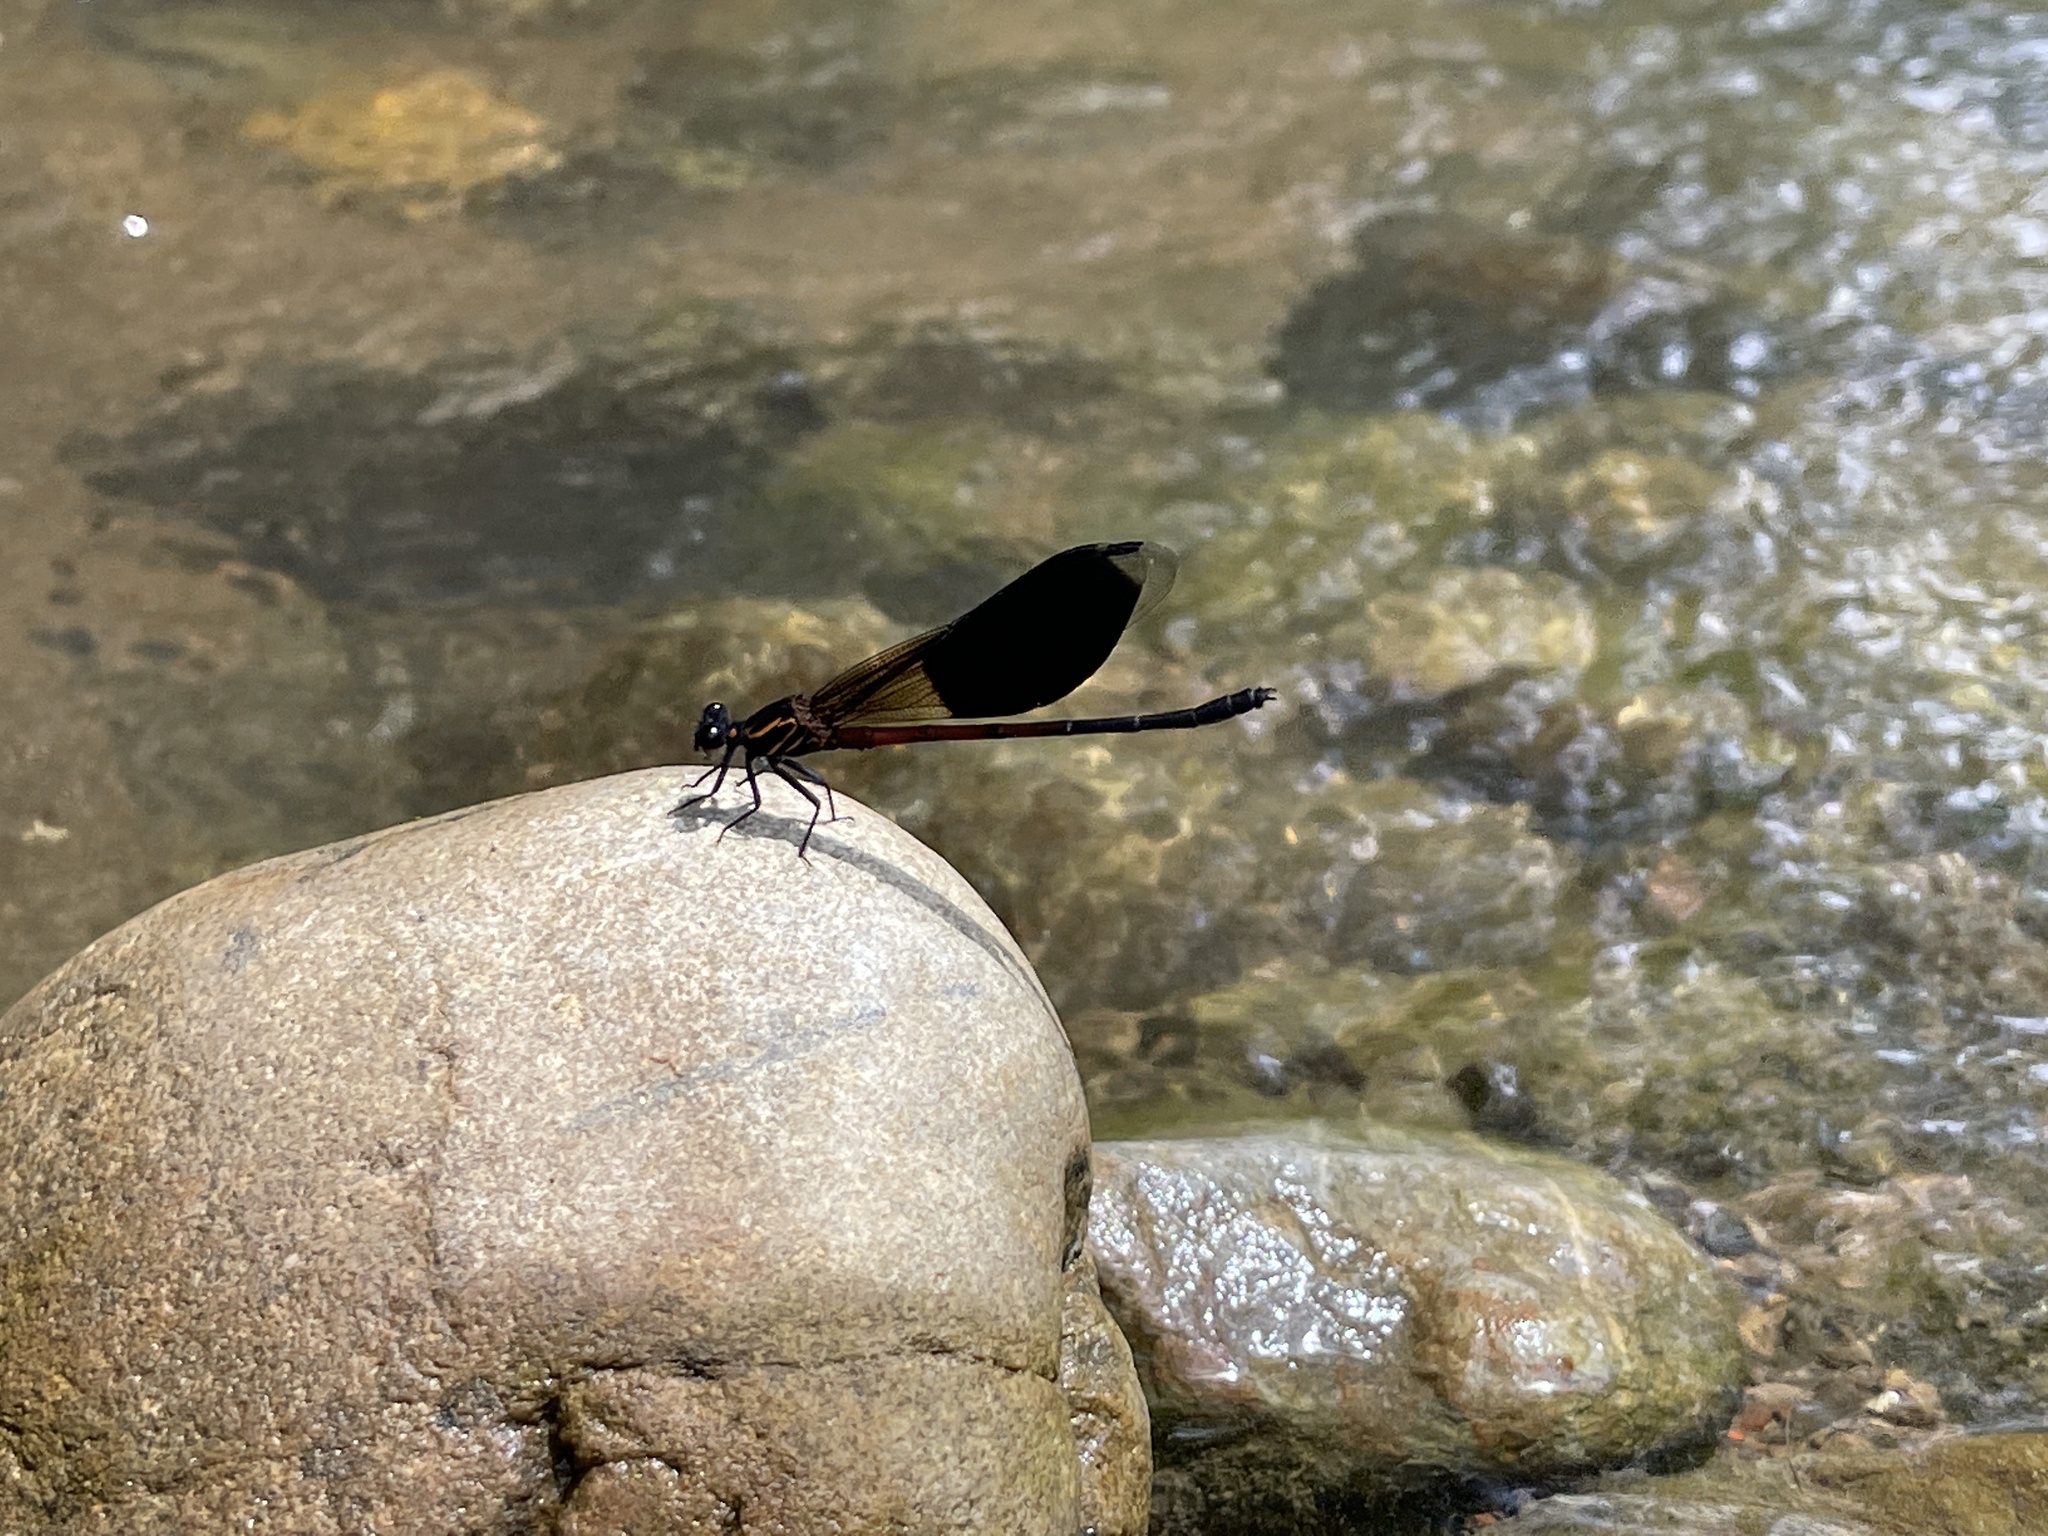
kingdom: Animalia
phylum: Arthropoda
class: Insecta
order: Odonata
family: Euphaeidae
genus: Euphaea
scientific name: Euphaea formosa
